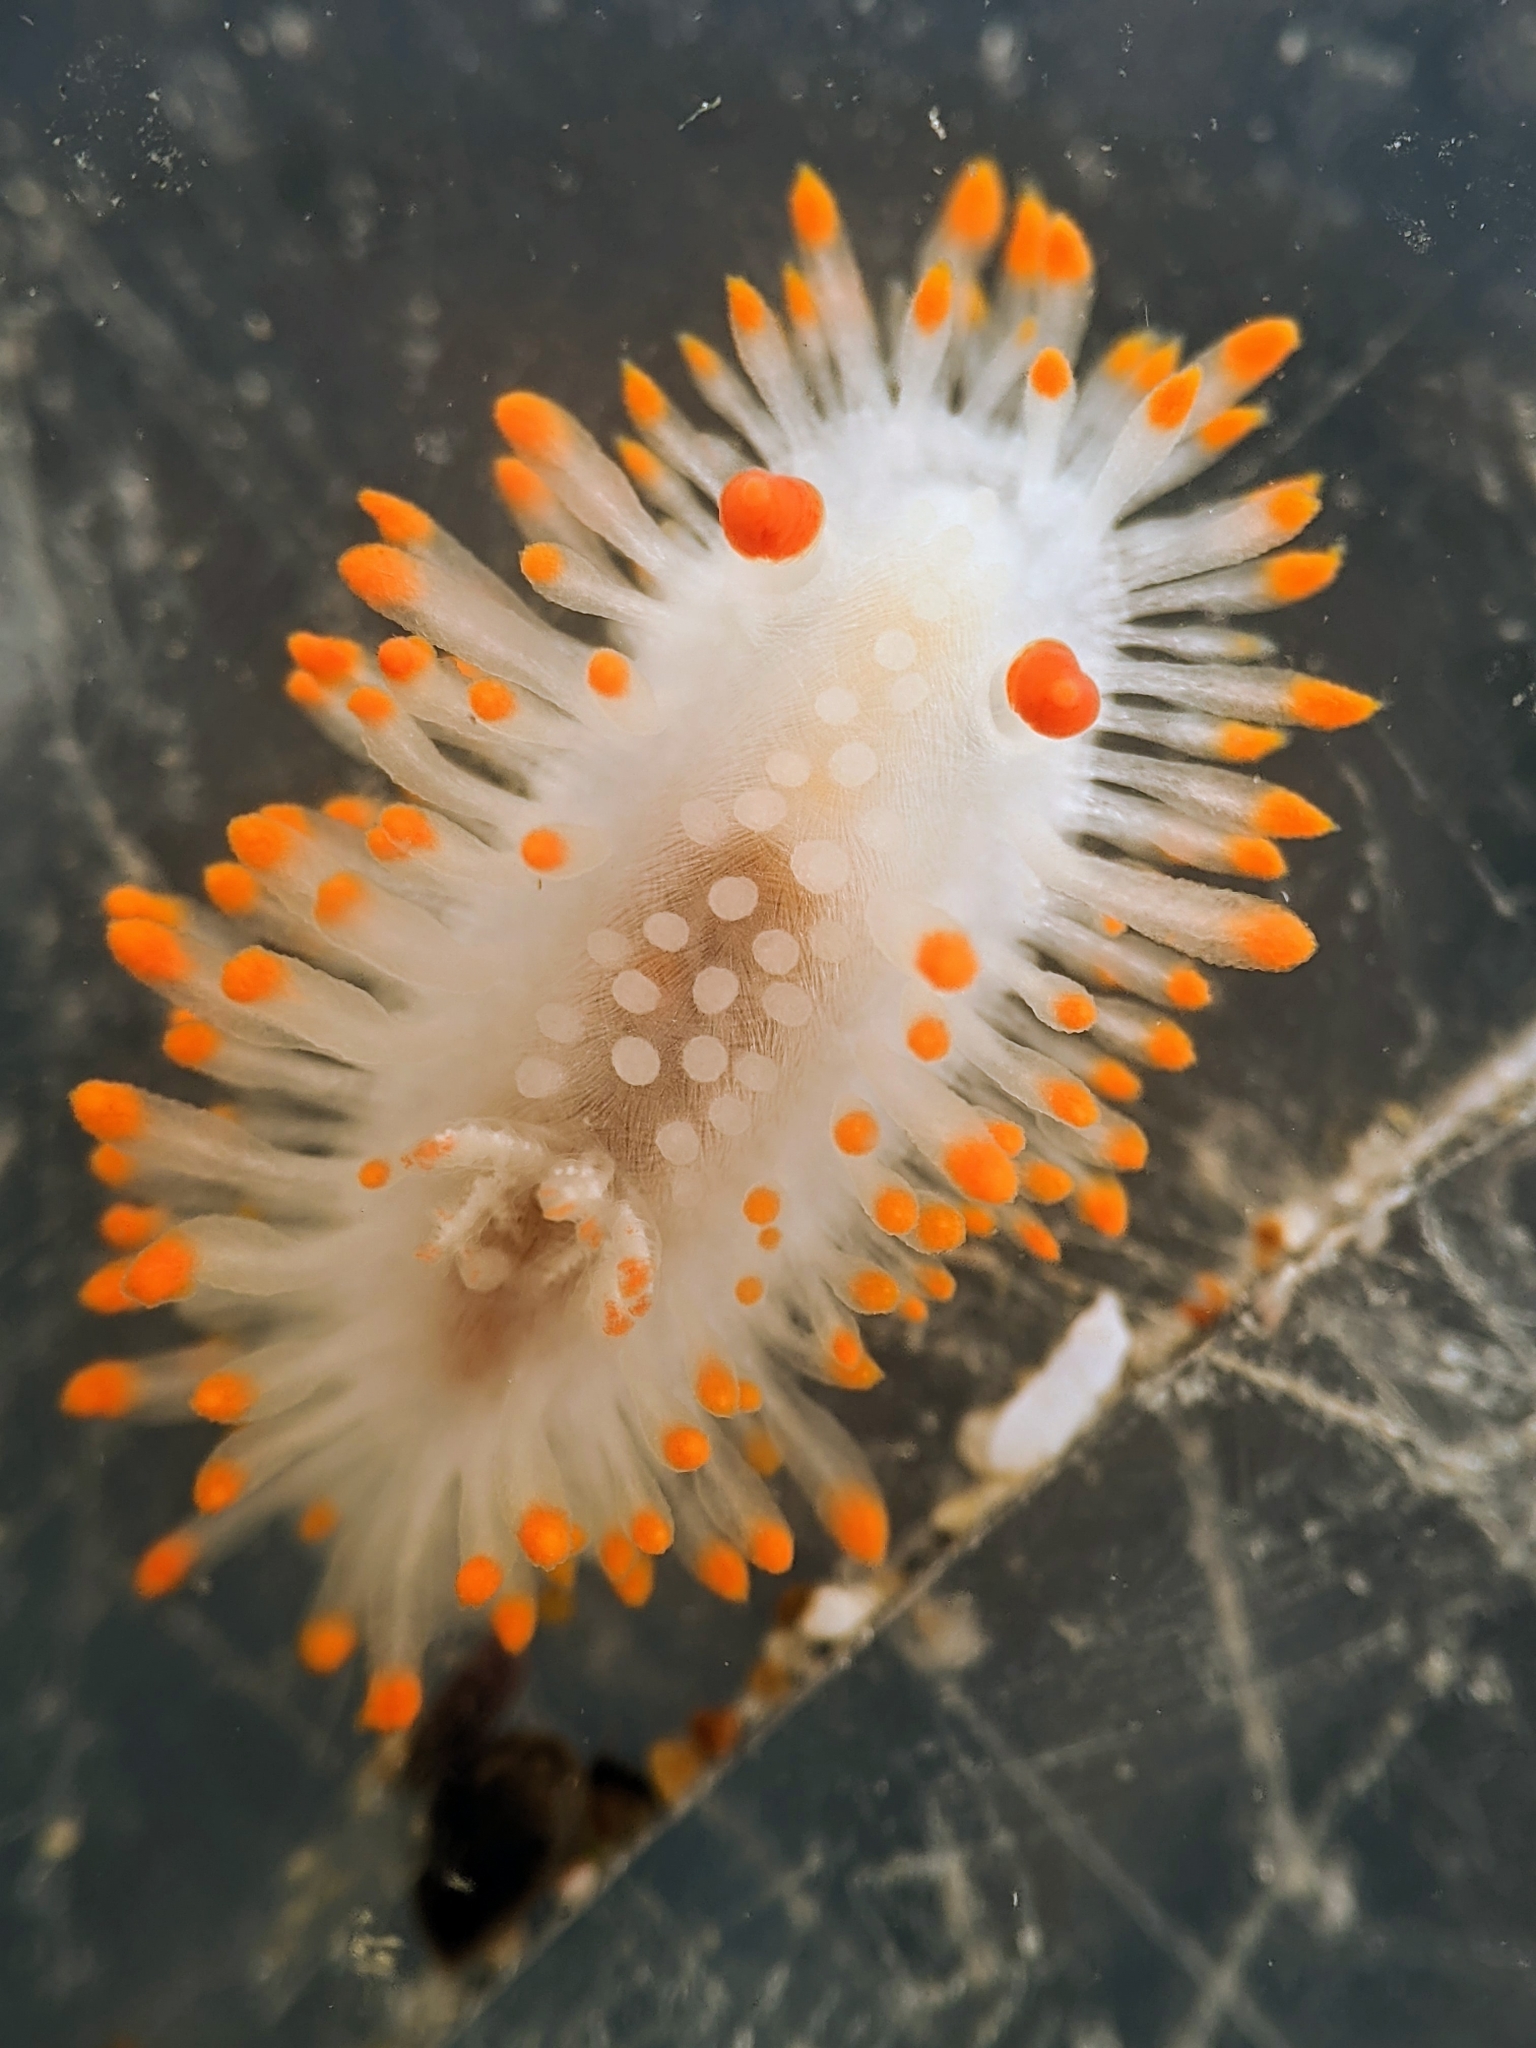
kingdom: Animalia
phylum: Mollusca
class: Gastropoda
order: Nudibranchia
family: Polyceridae
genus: Limacia
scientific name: Limacia cockerelli
